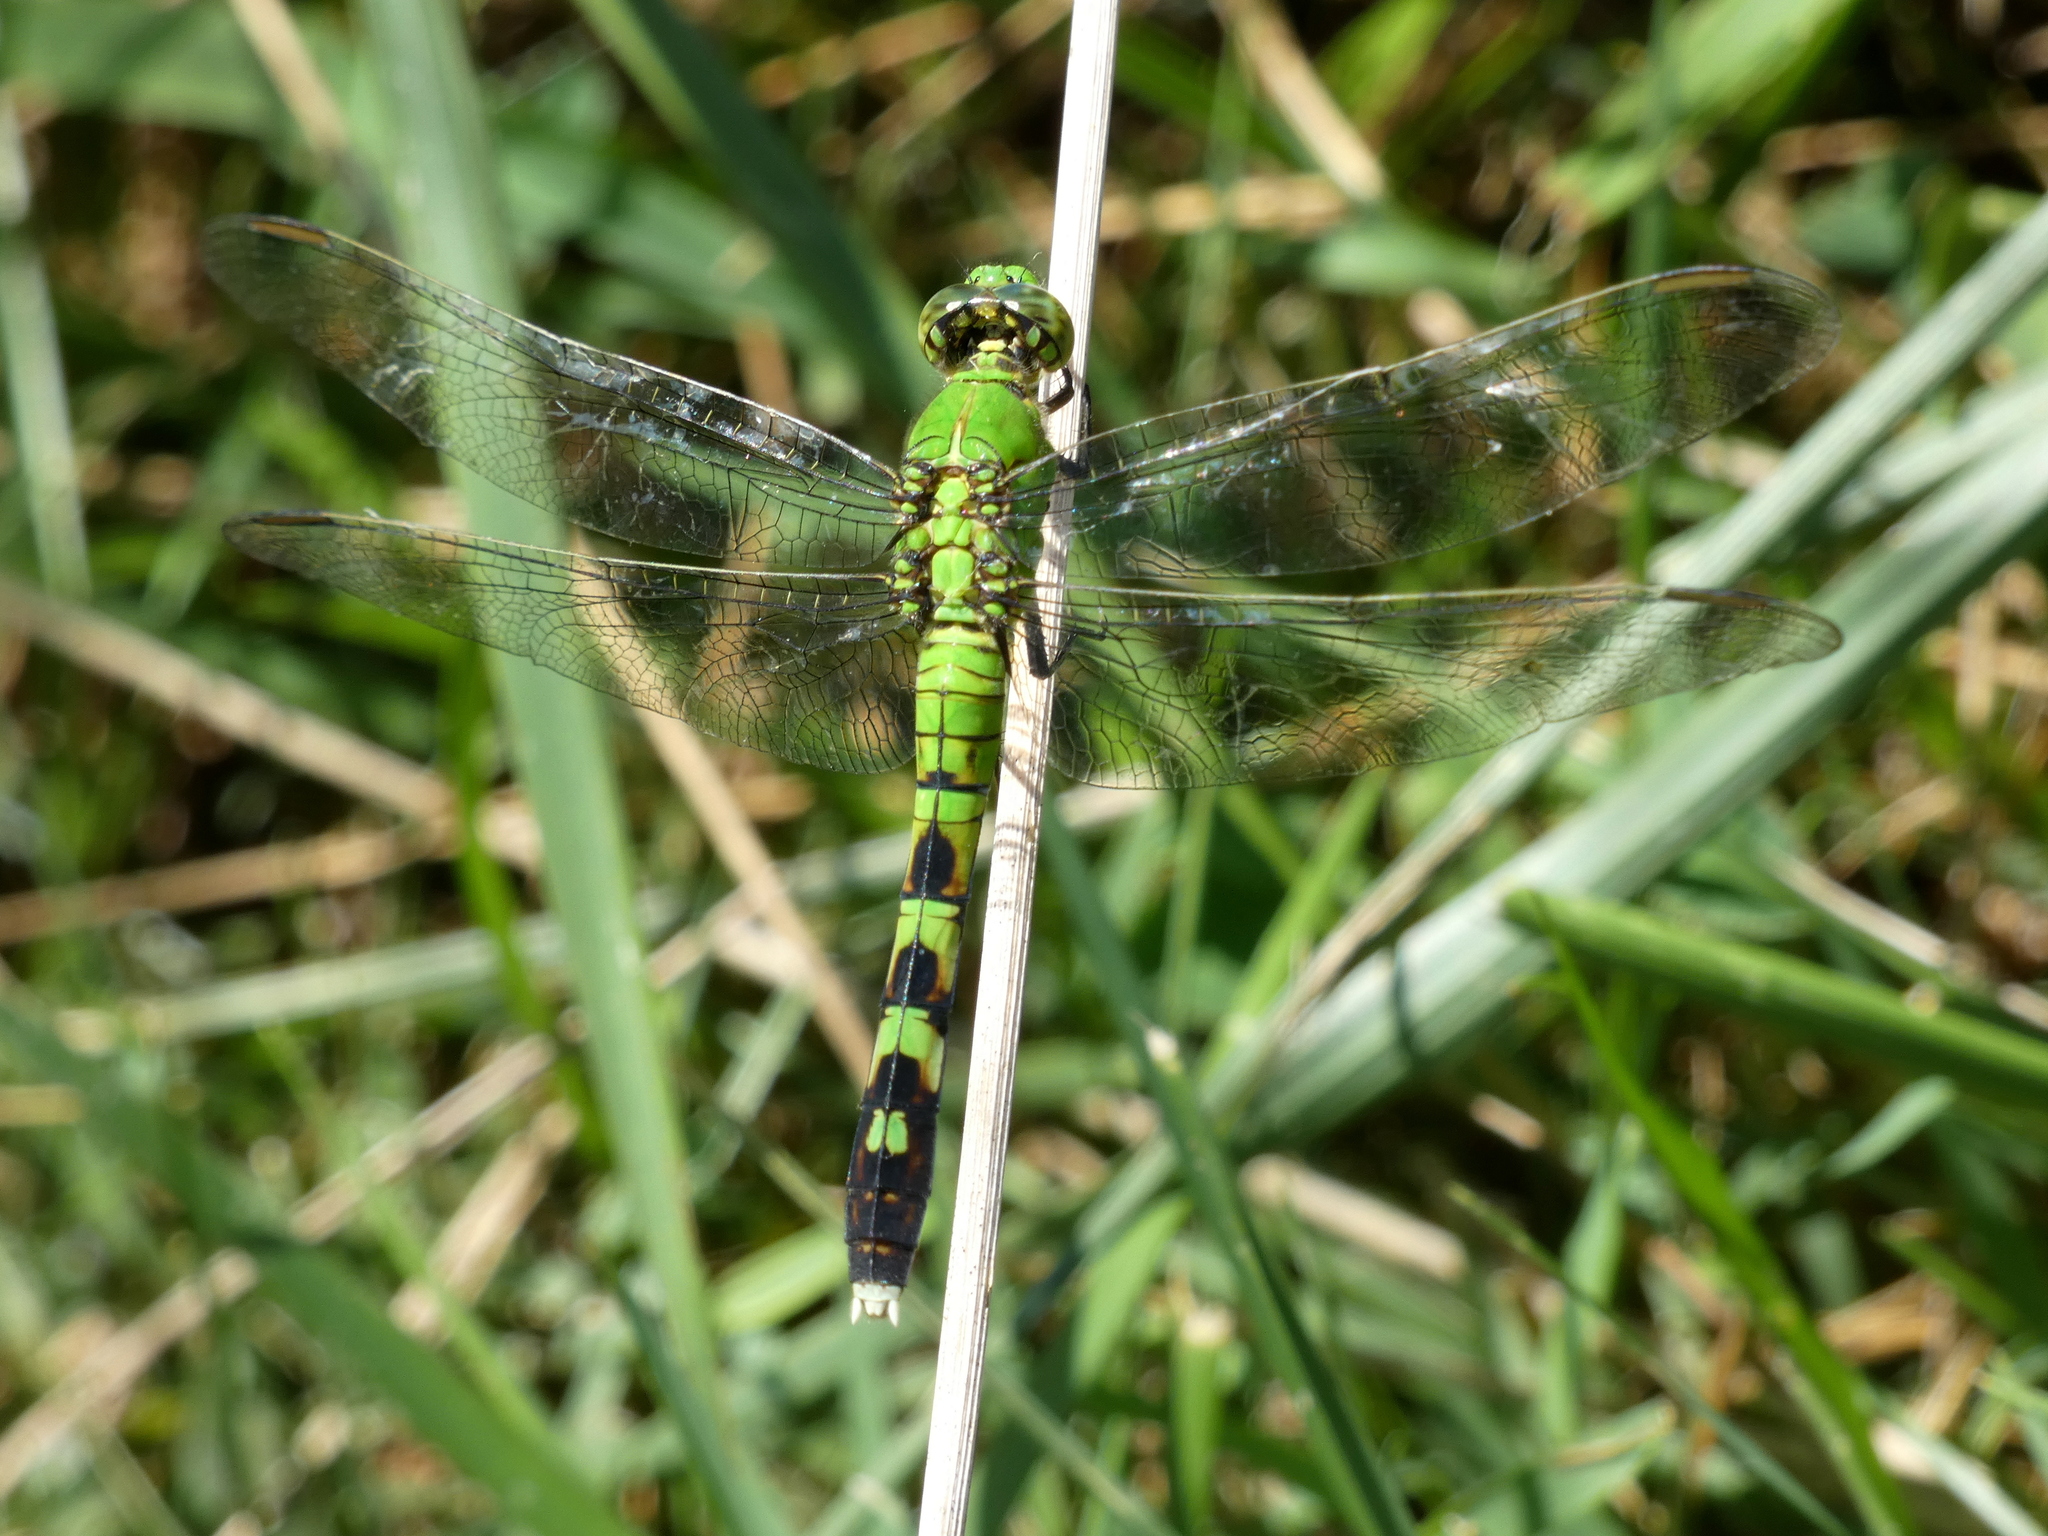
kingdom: Animalia
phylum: Arthropoda
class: Insecta
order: Odonata
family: Libellulidae
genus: Erythemis
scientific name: Erythemis simplicicollis
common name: Eastern pondhawk
